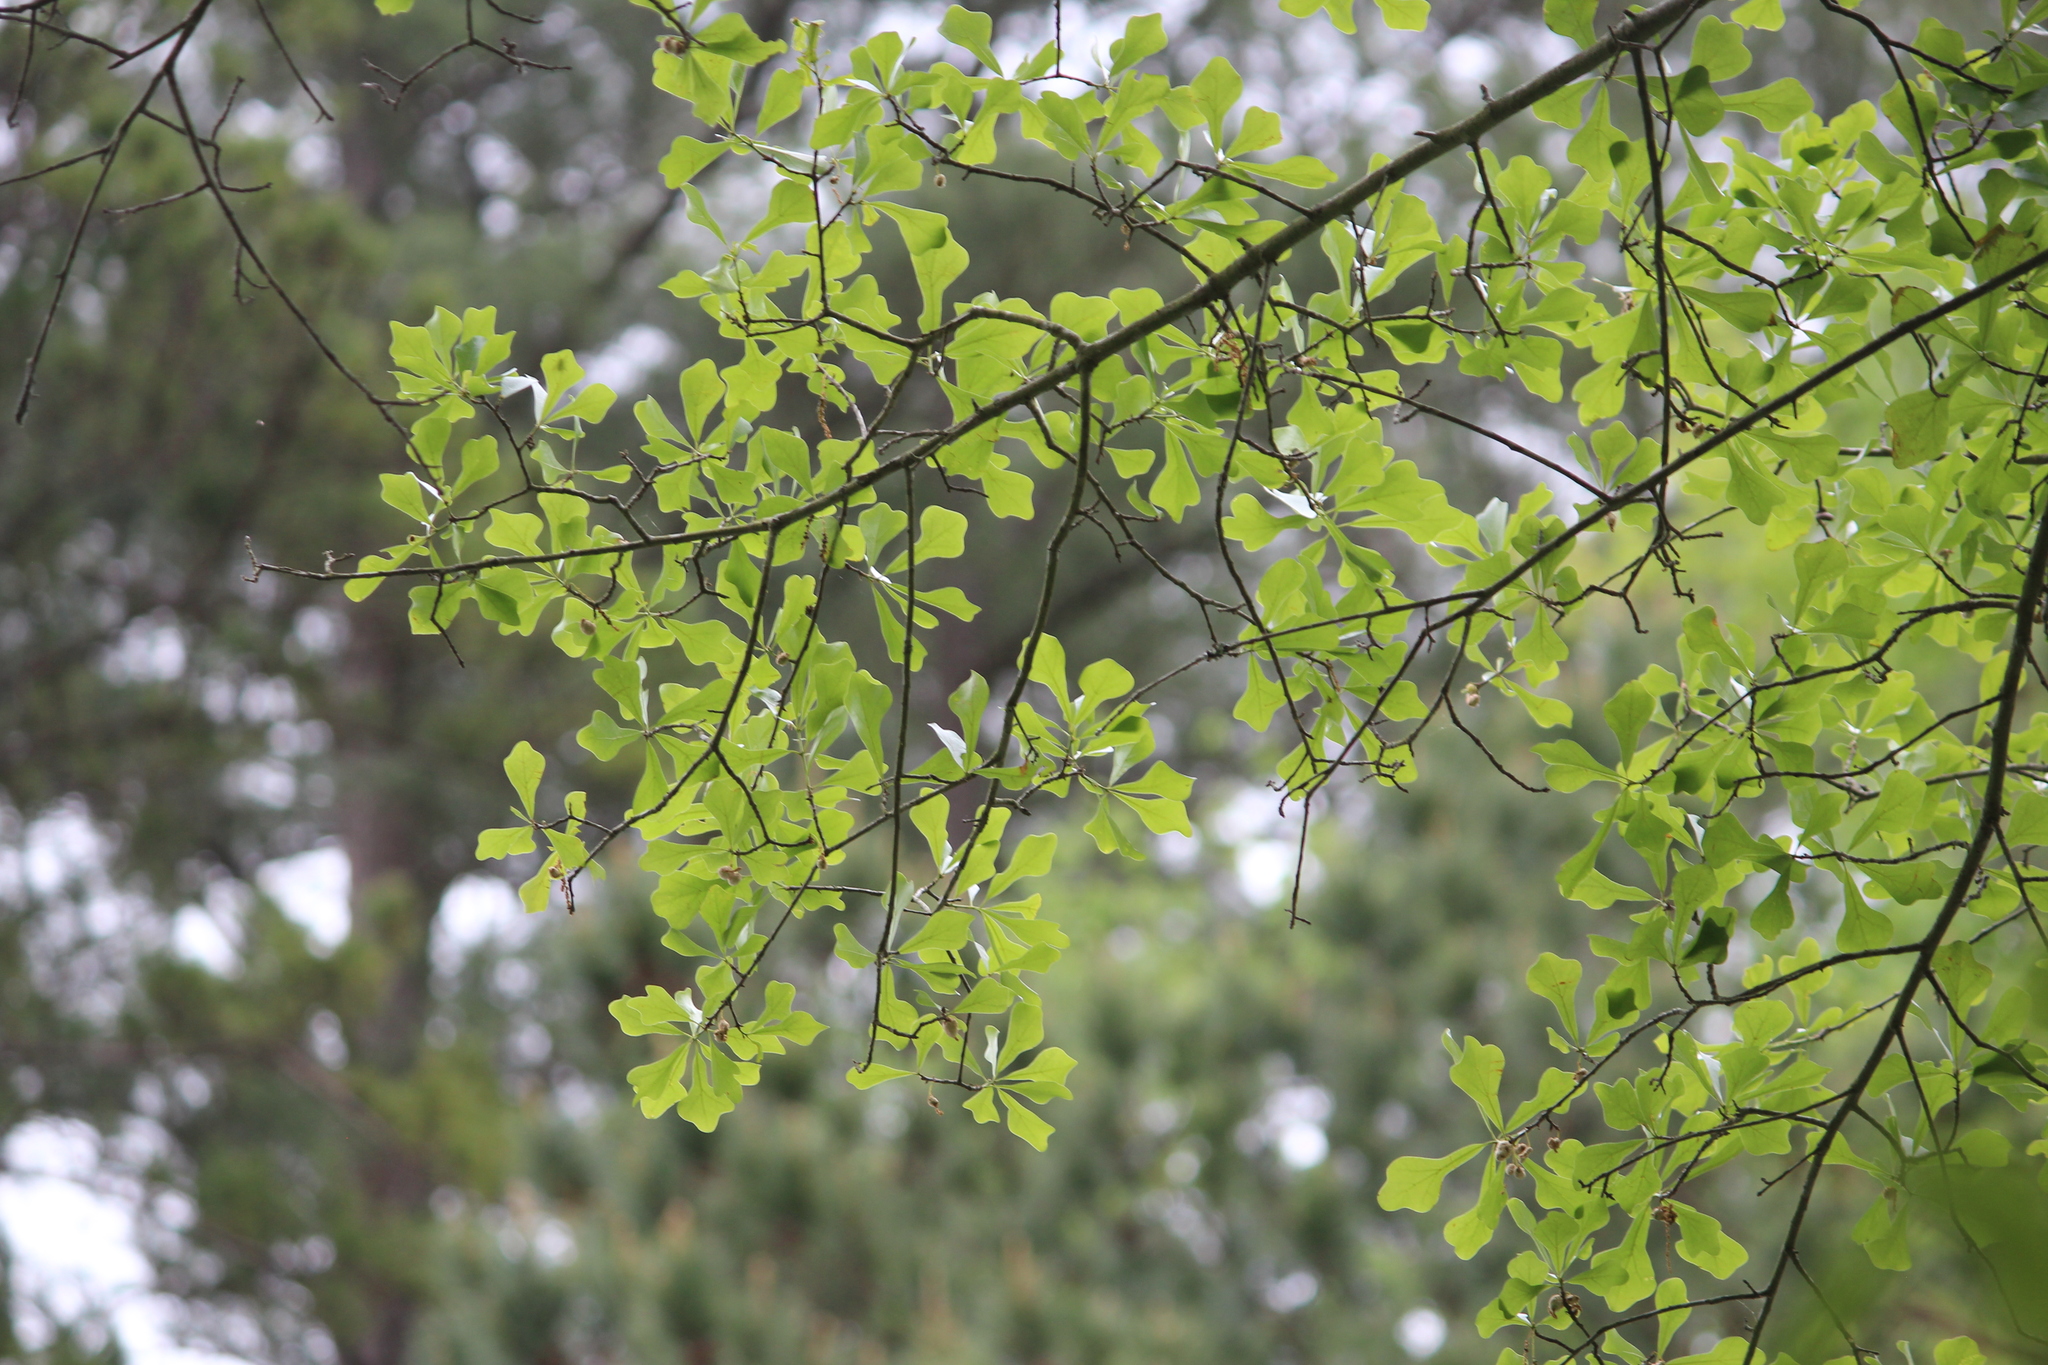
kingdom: Plantae
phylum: Tracheophyta
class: Magnoliopsida
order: Fagales
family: Fagaceae
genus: Quercus
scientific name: Quercus nigra
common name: Water oak
